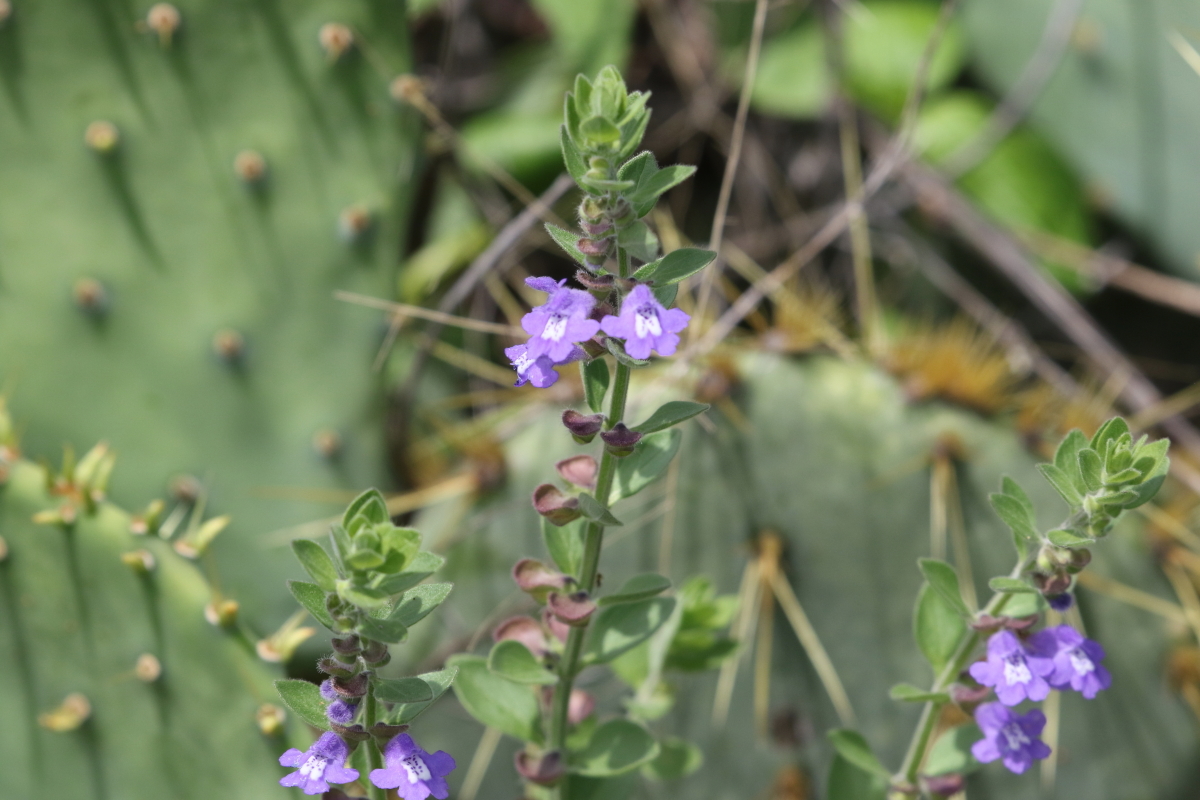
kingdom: Plantae
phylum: Tracheophyta
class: Magnoliopsida
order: Lamiales
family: Lamiaceae
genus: Scutellaria
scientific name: Scutellaria drummondii
